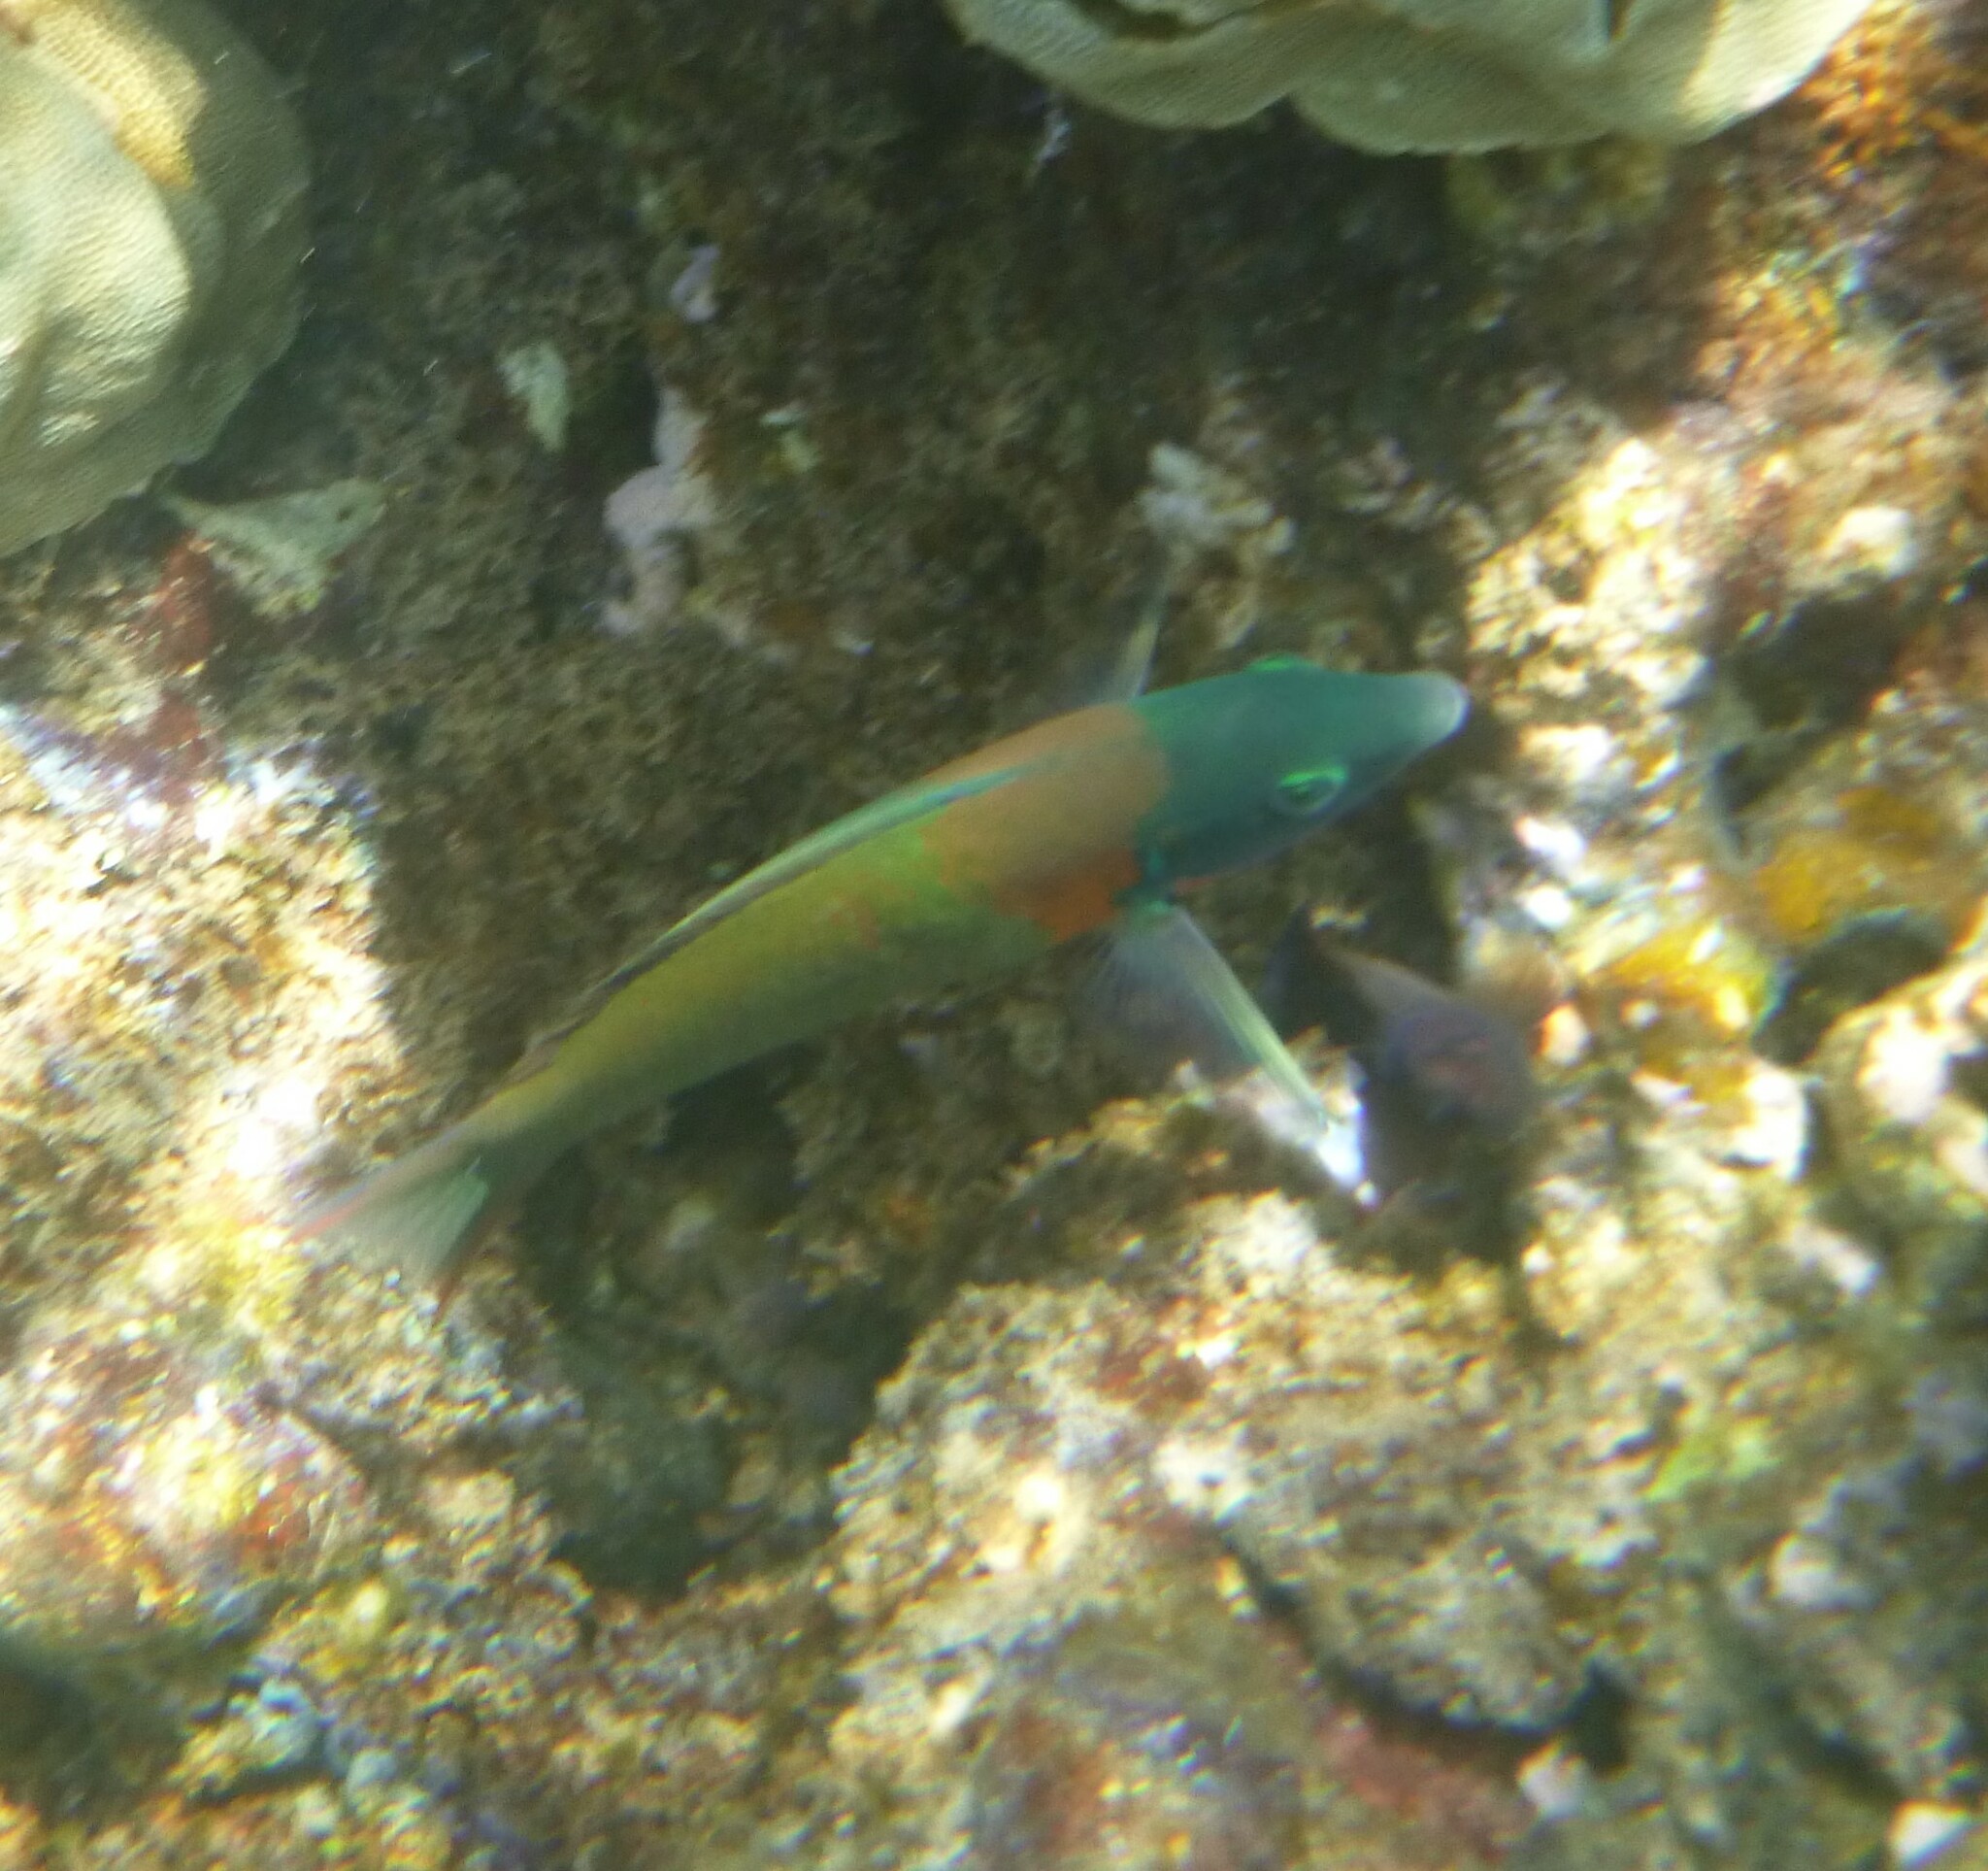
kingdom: Animalia
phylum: Chordata
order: Perciformes
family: Labridae
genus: Thalassoma
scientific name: Thalassoma duperrey
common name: Saddle wrasse
